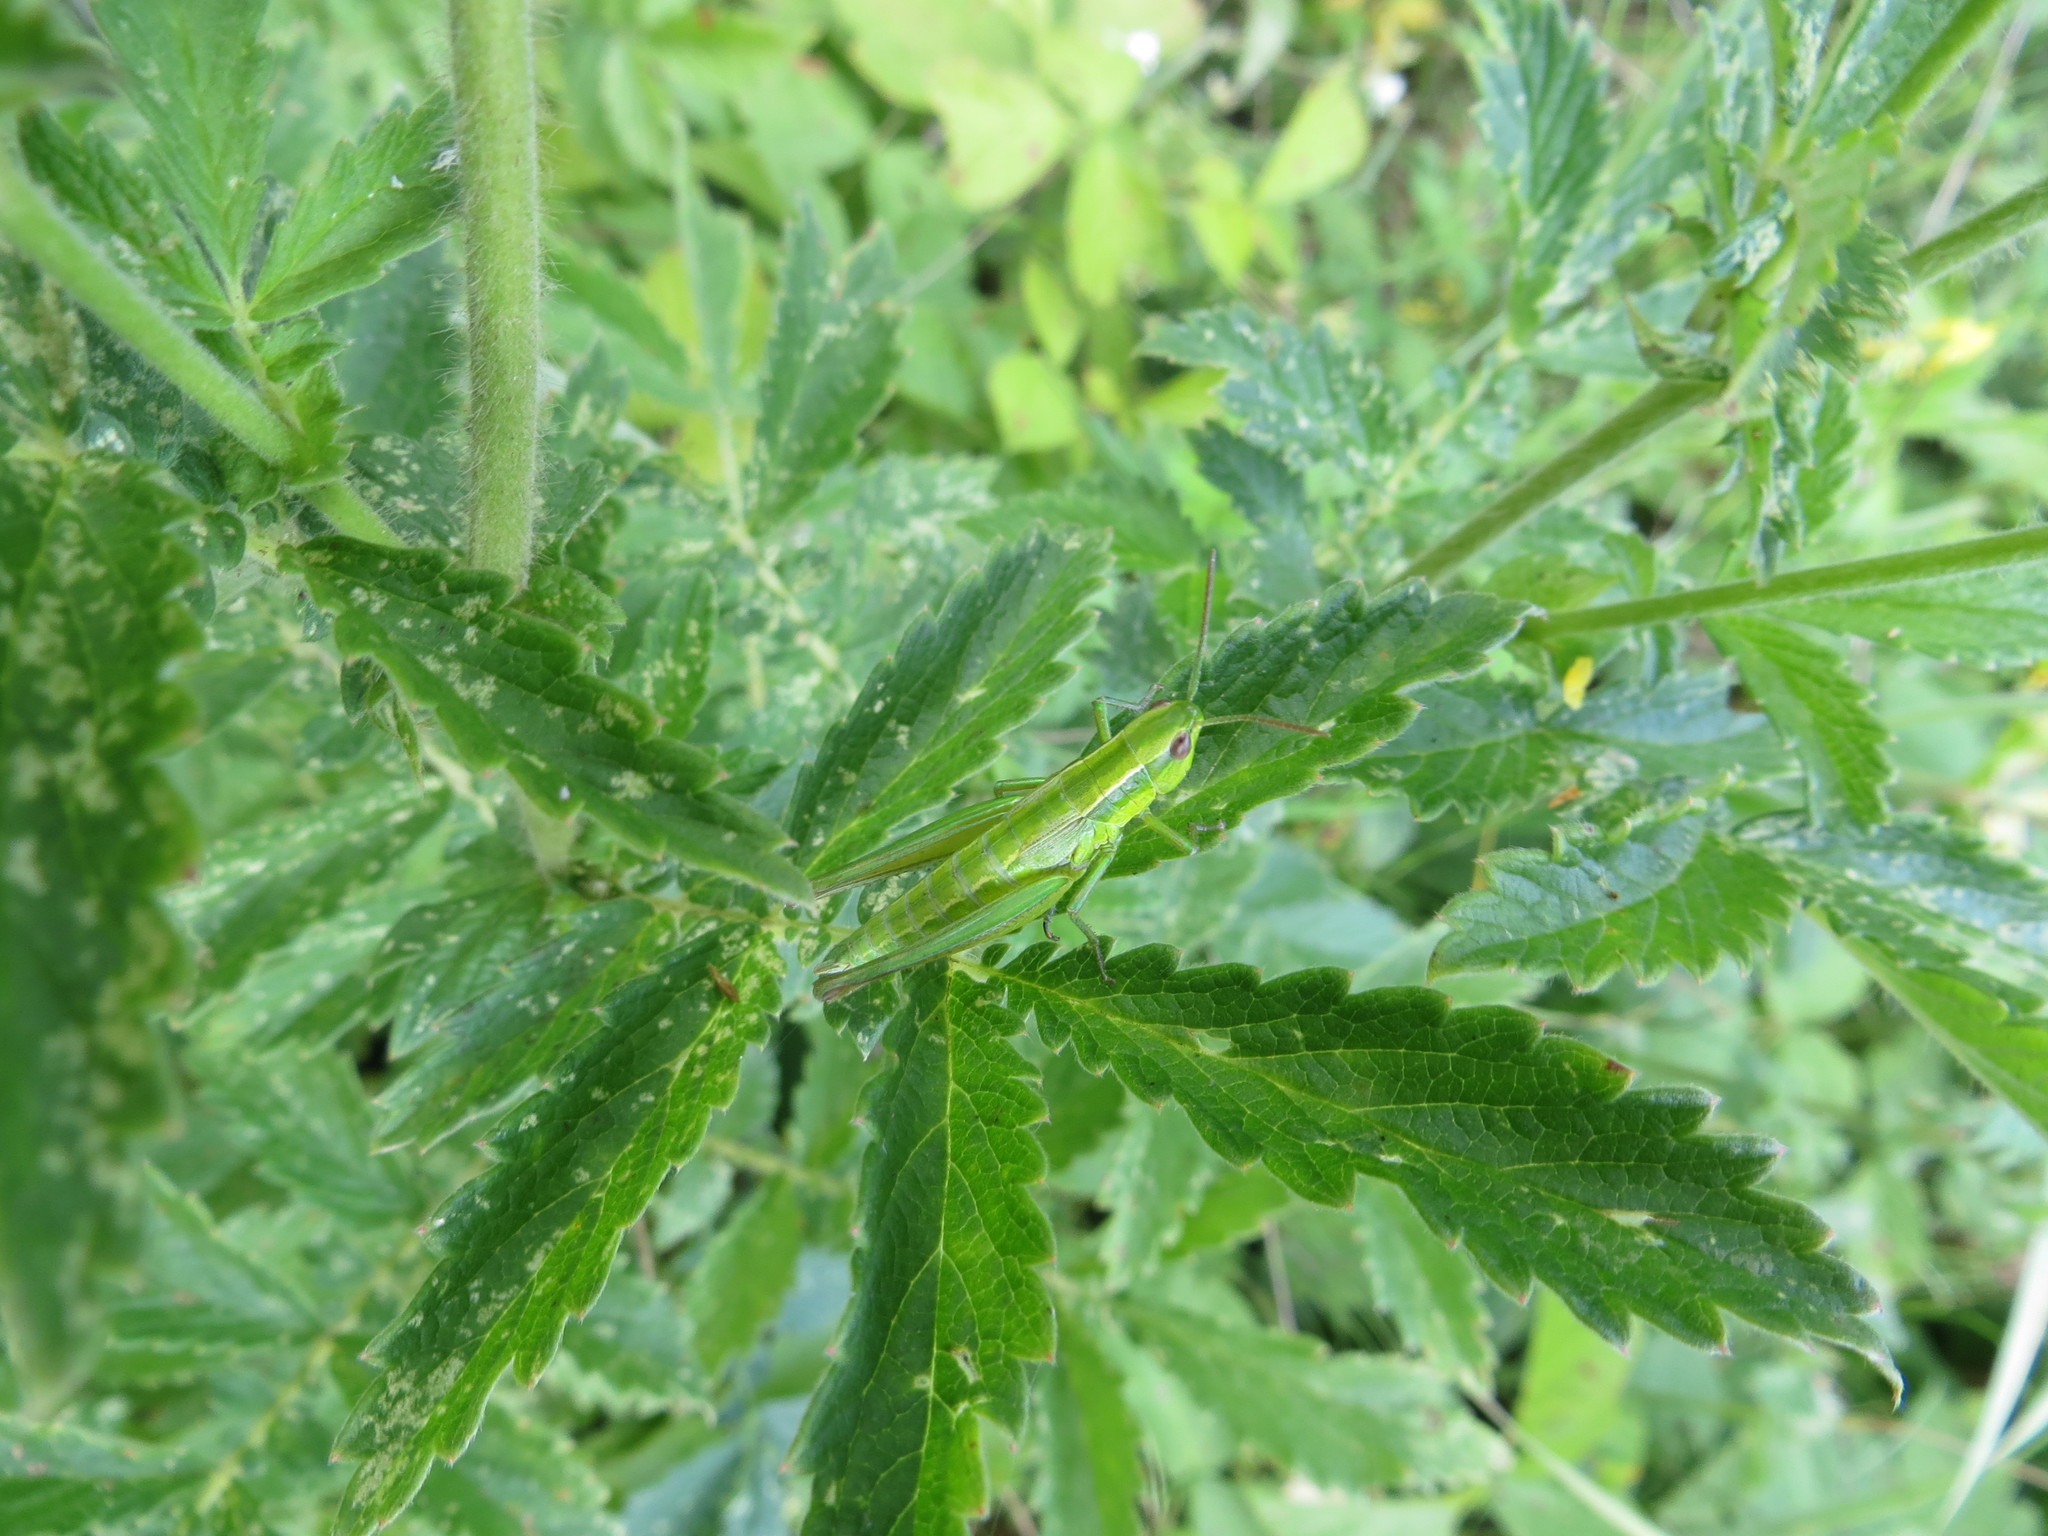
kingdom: Animalia
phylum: Arthropoda
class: Insecta
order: Orthoptera
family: Acrididae
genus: Euthystira
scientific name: Euthystira brachyptera
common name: Small gold grasshopper
